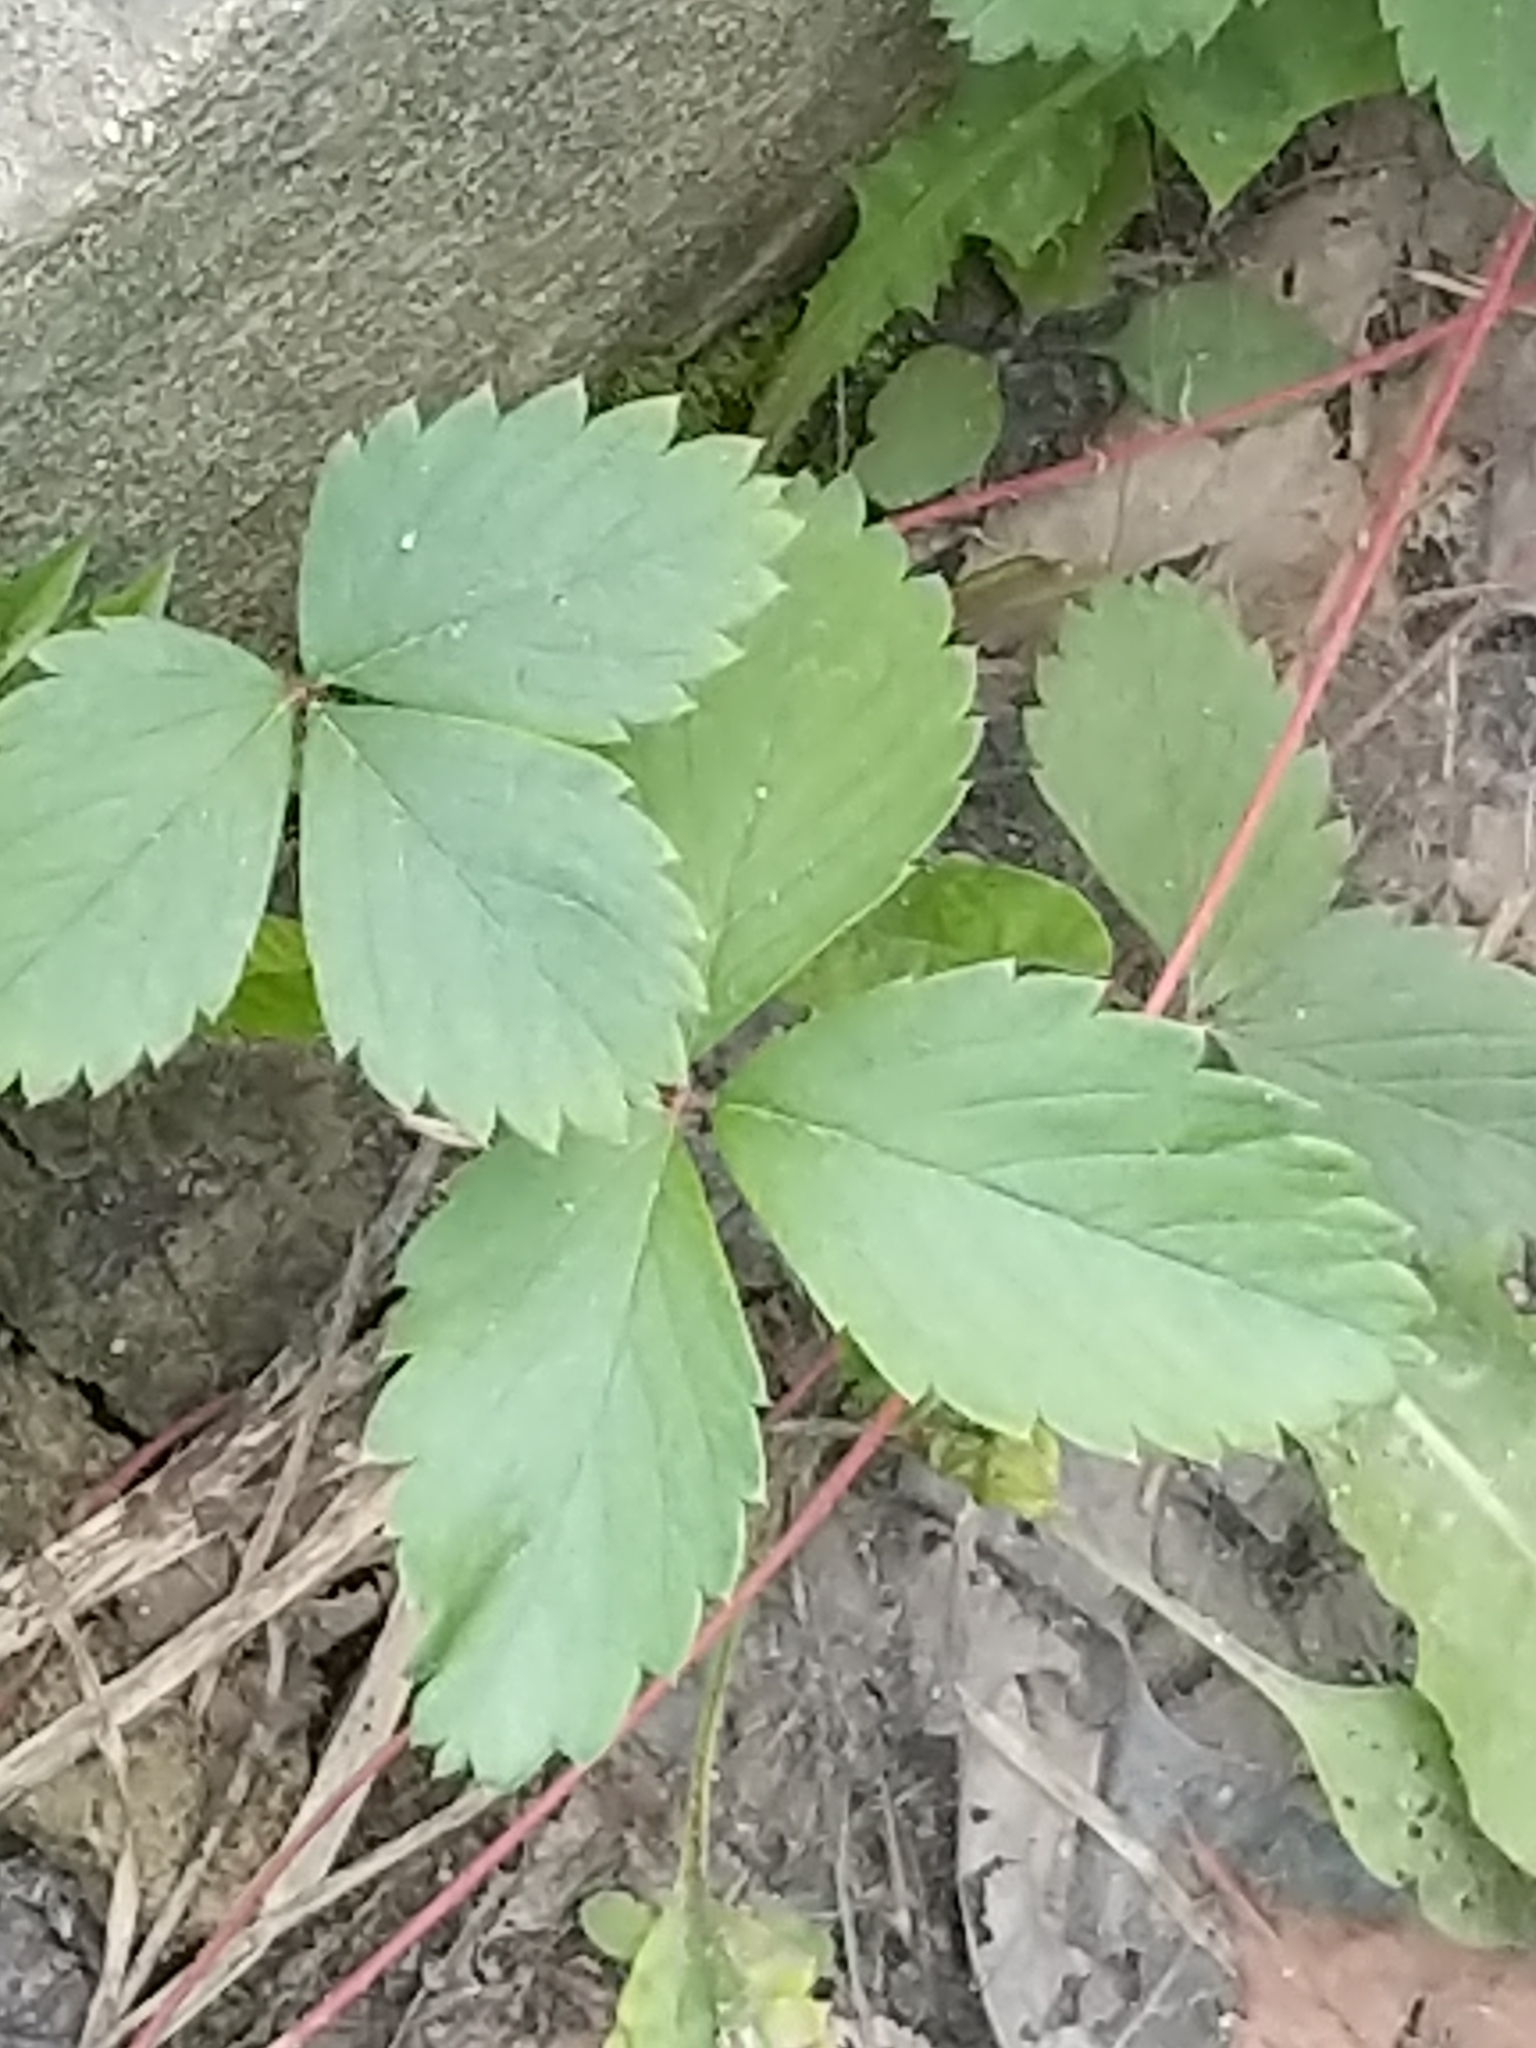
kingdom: Plantae
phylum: Tracheophyta
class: Magnoliopsida
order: Rosales
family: Rosaceae
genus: Fragaria
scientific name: Fragaria virginiana
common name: Thickleaved wild strawberry
